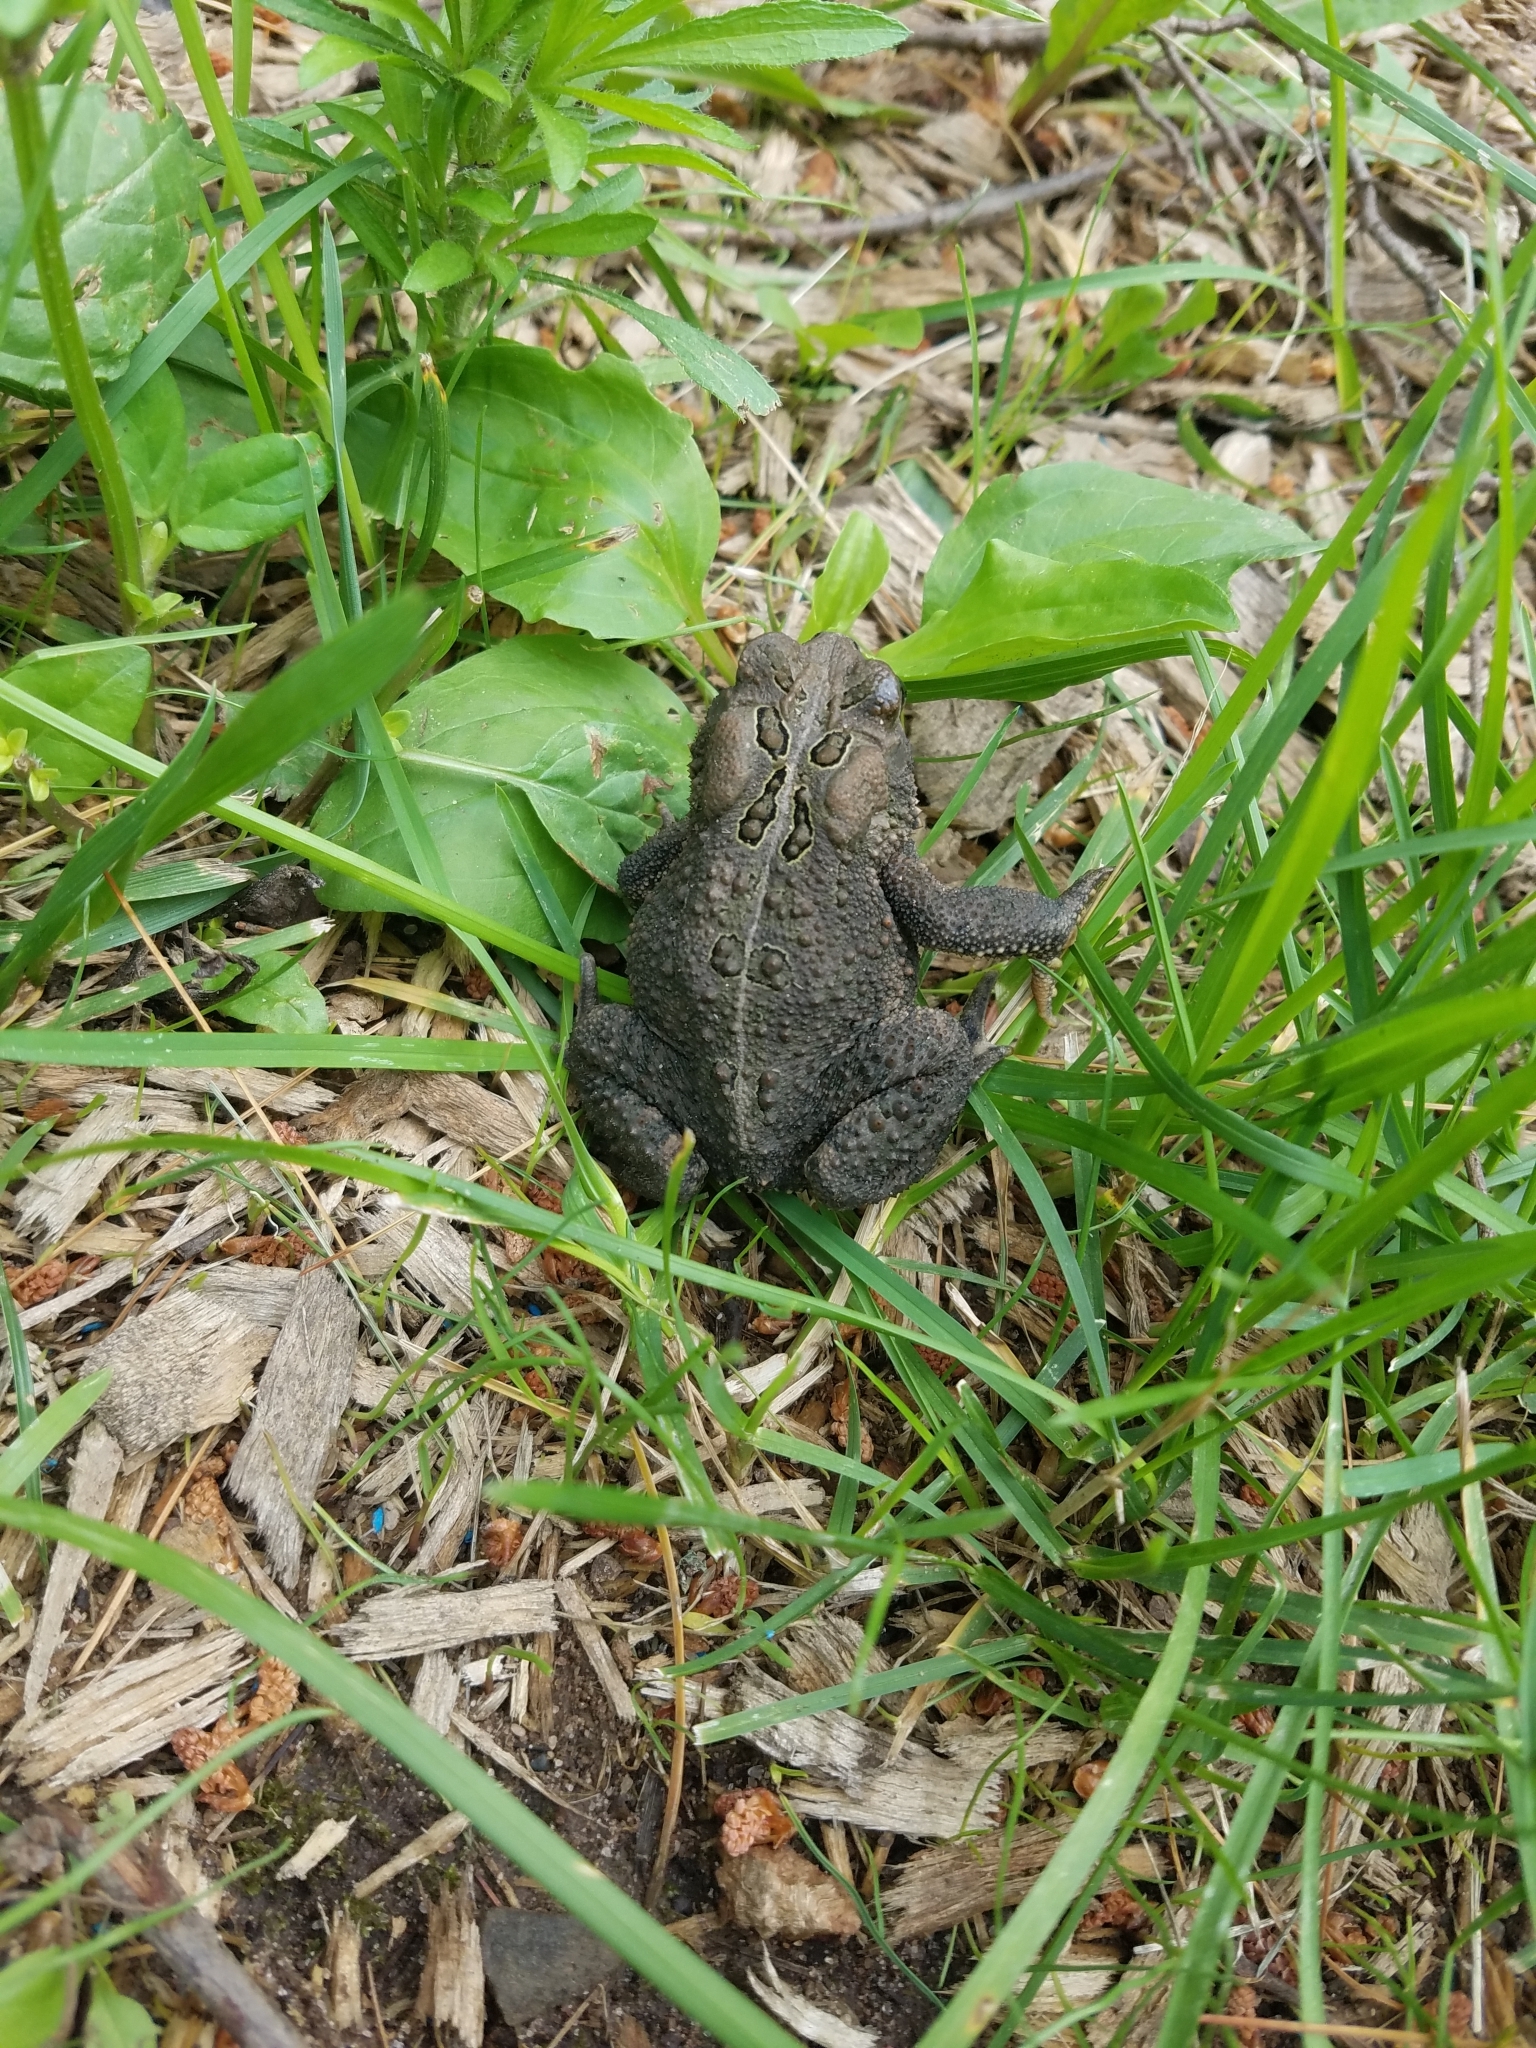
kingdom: Animalia
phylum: Chordata
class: Amphibia
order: Anura
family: Bufonidae
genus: Anaxyrus
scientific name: Anaxyrus americanus
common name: American toad
